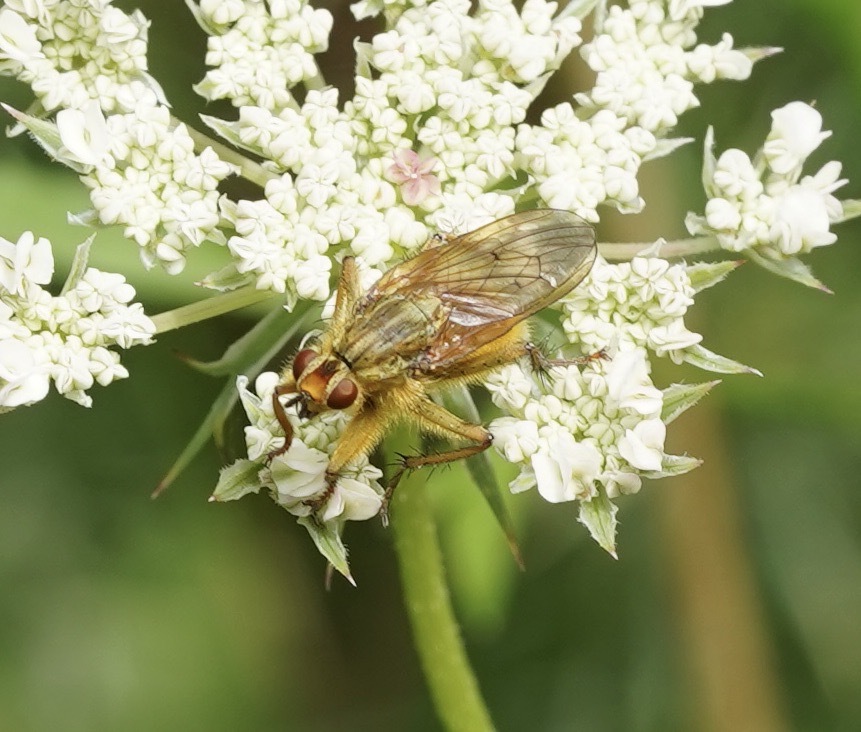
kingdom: Animalia
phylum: Arthropoda
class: Insecta
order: Diptera
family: Scathophagidae
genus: Scathophaga
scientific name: Scathophaga stercoraria
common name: Yellow dung fly
